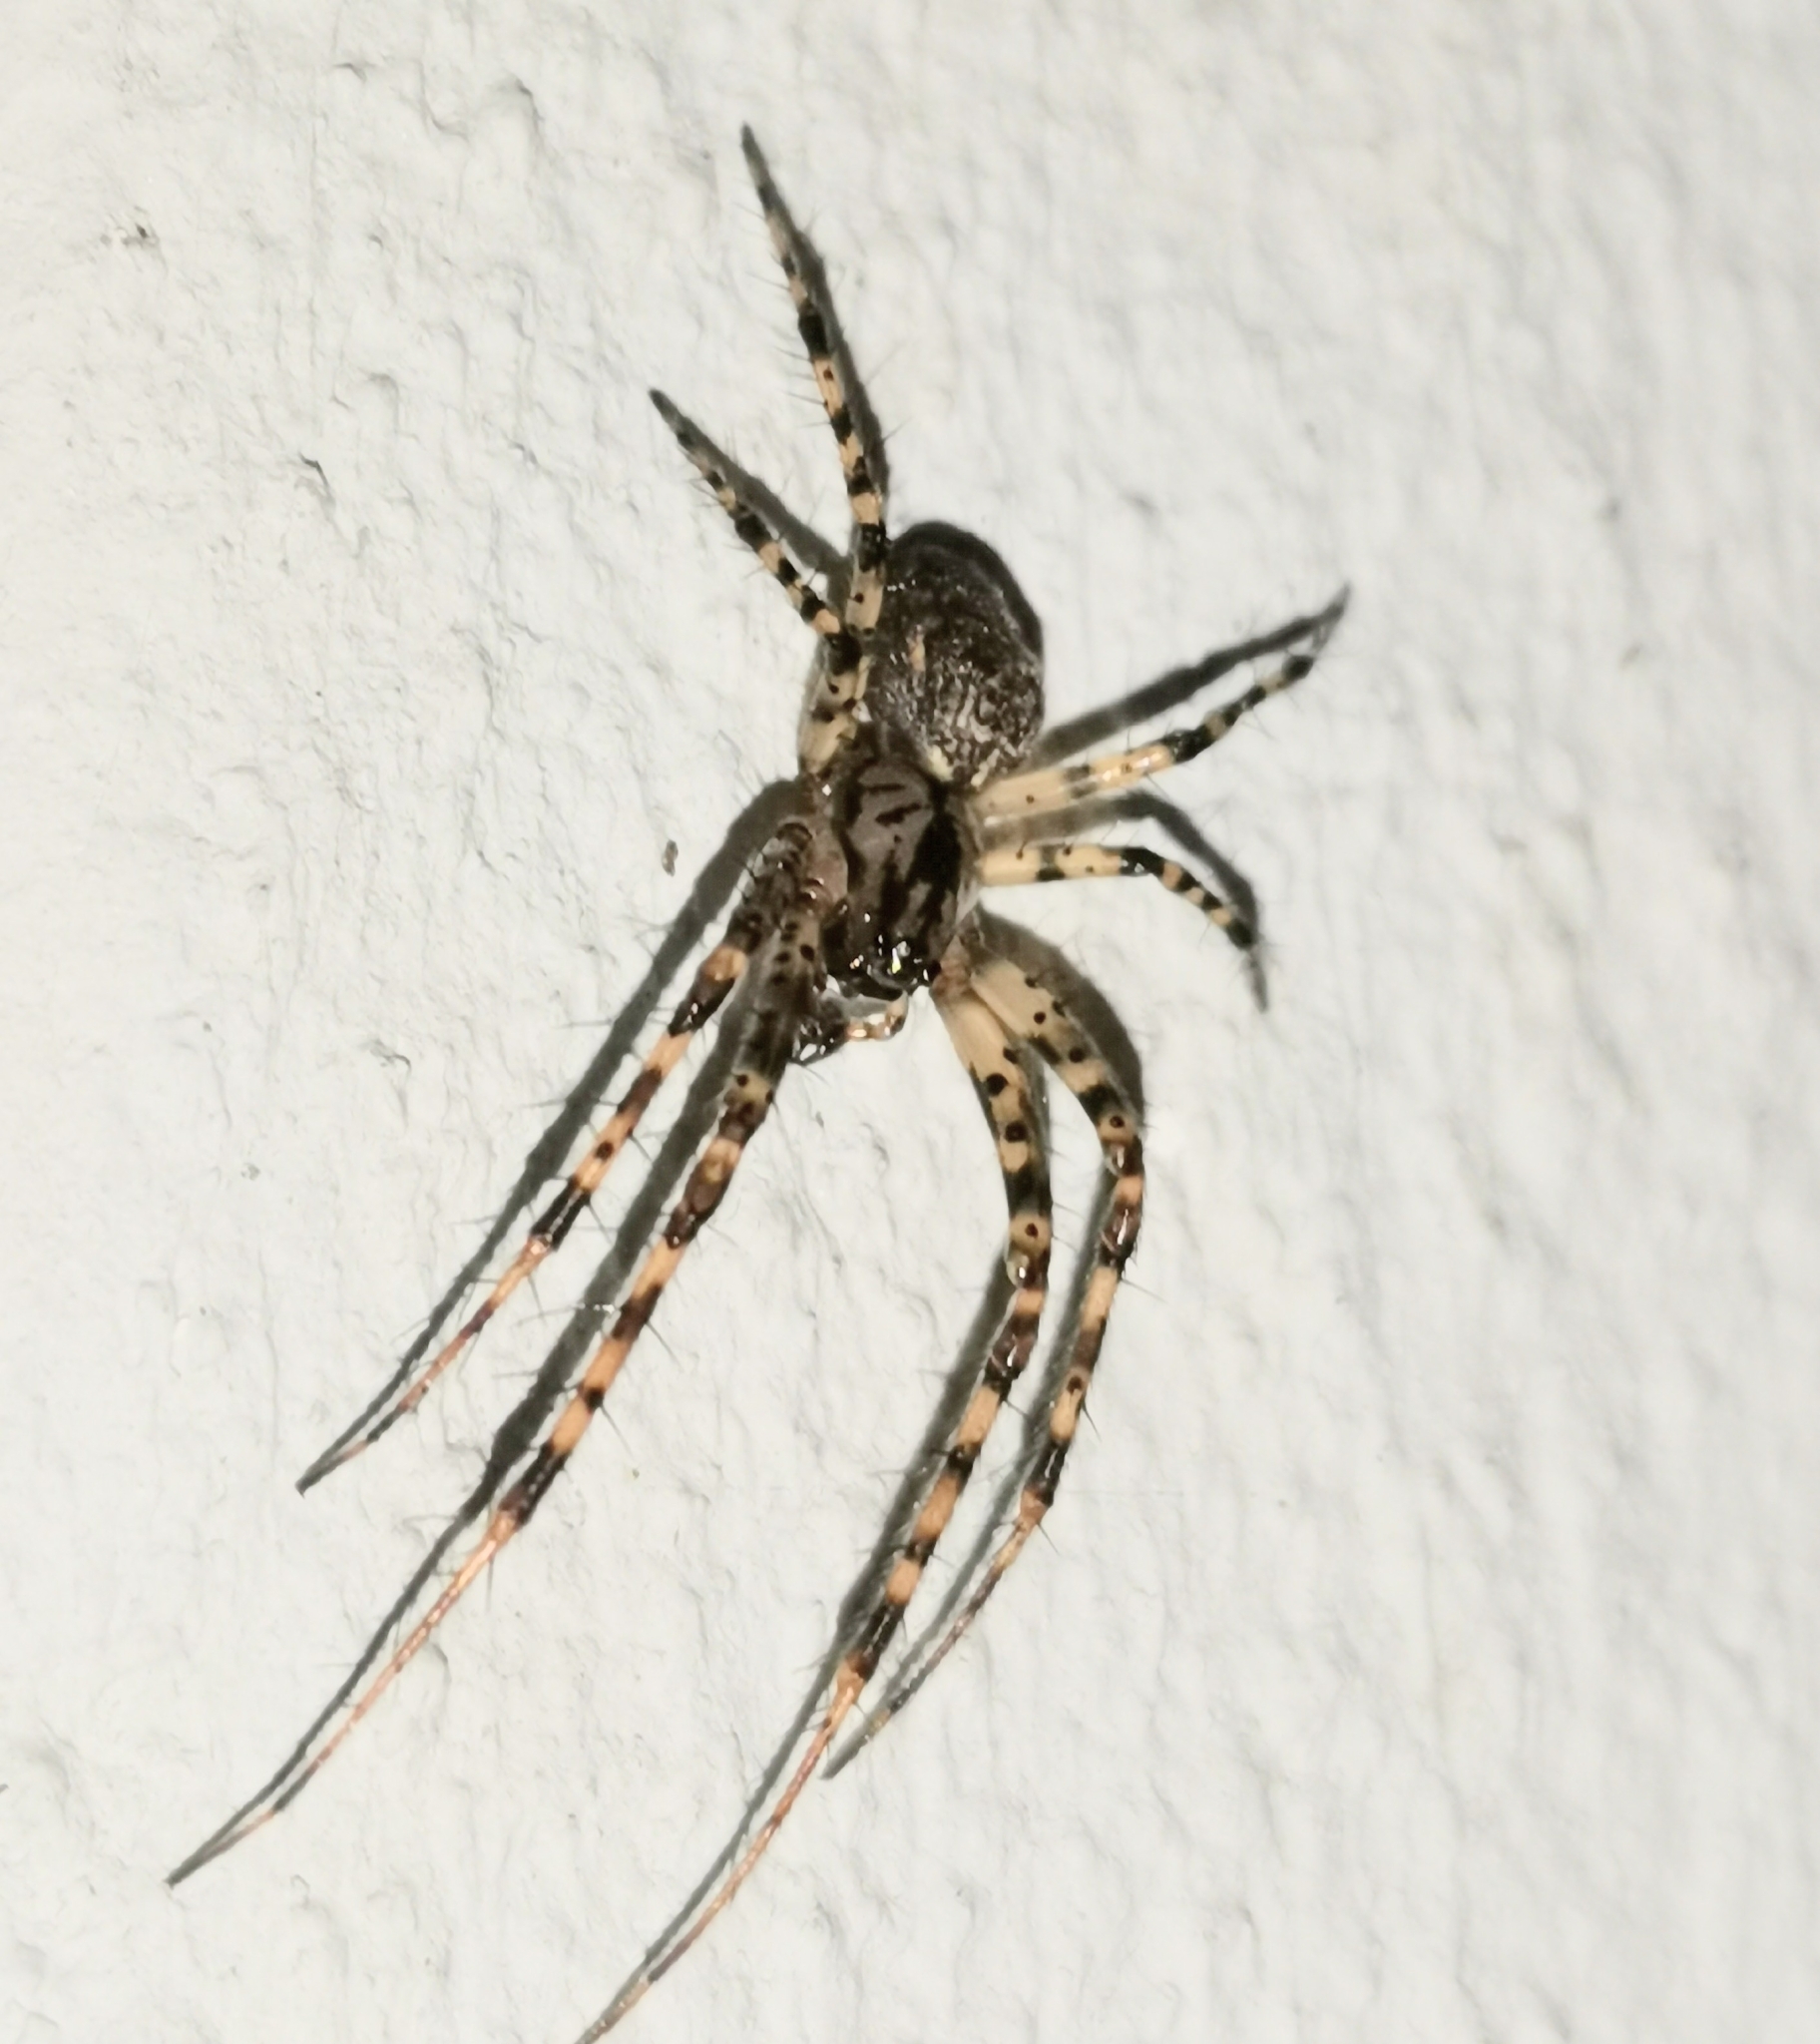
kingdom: Animalia
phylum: Arthropoda
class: Arachnida
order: Araneae
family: Tetragnathidae
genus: Metellina
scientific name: Metellina merianae
